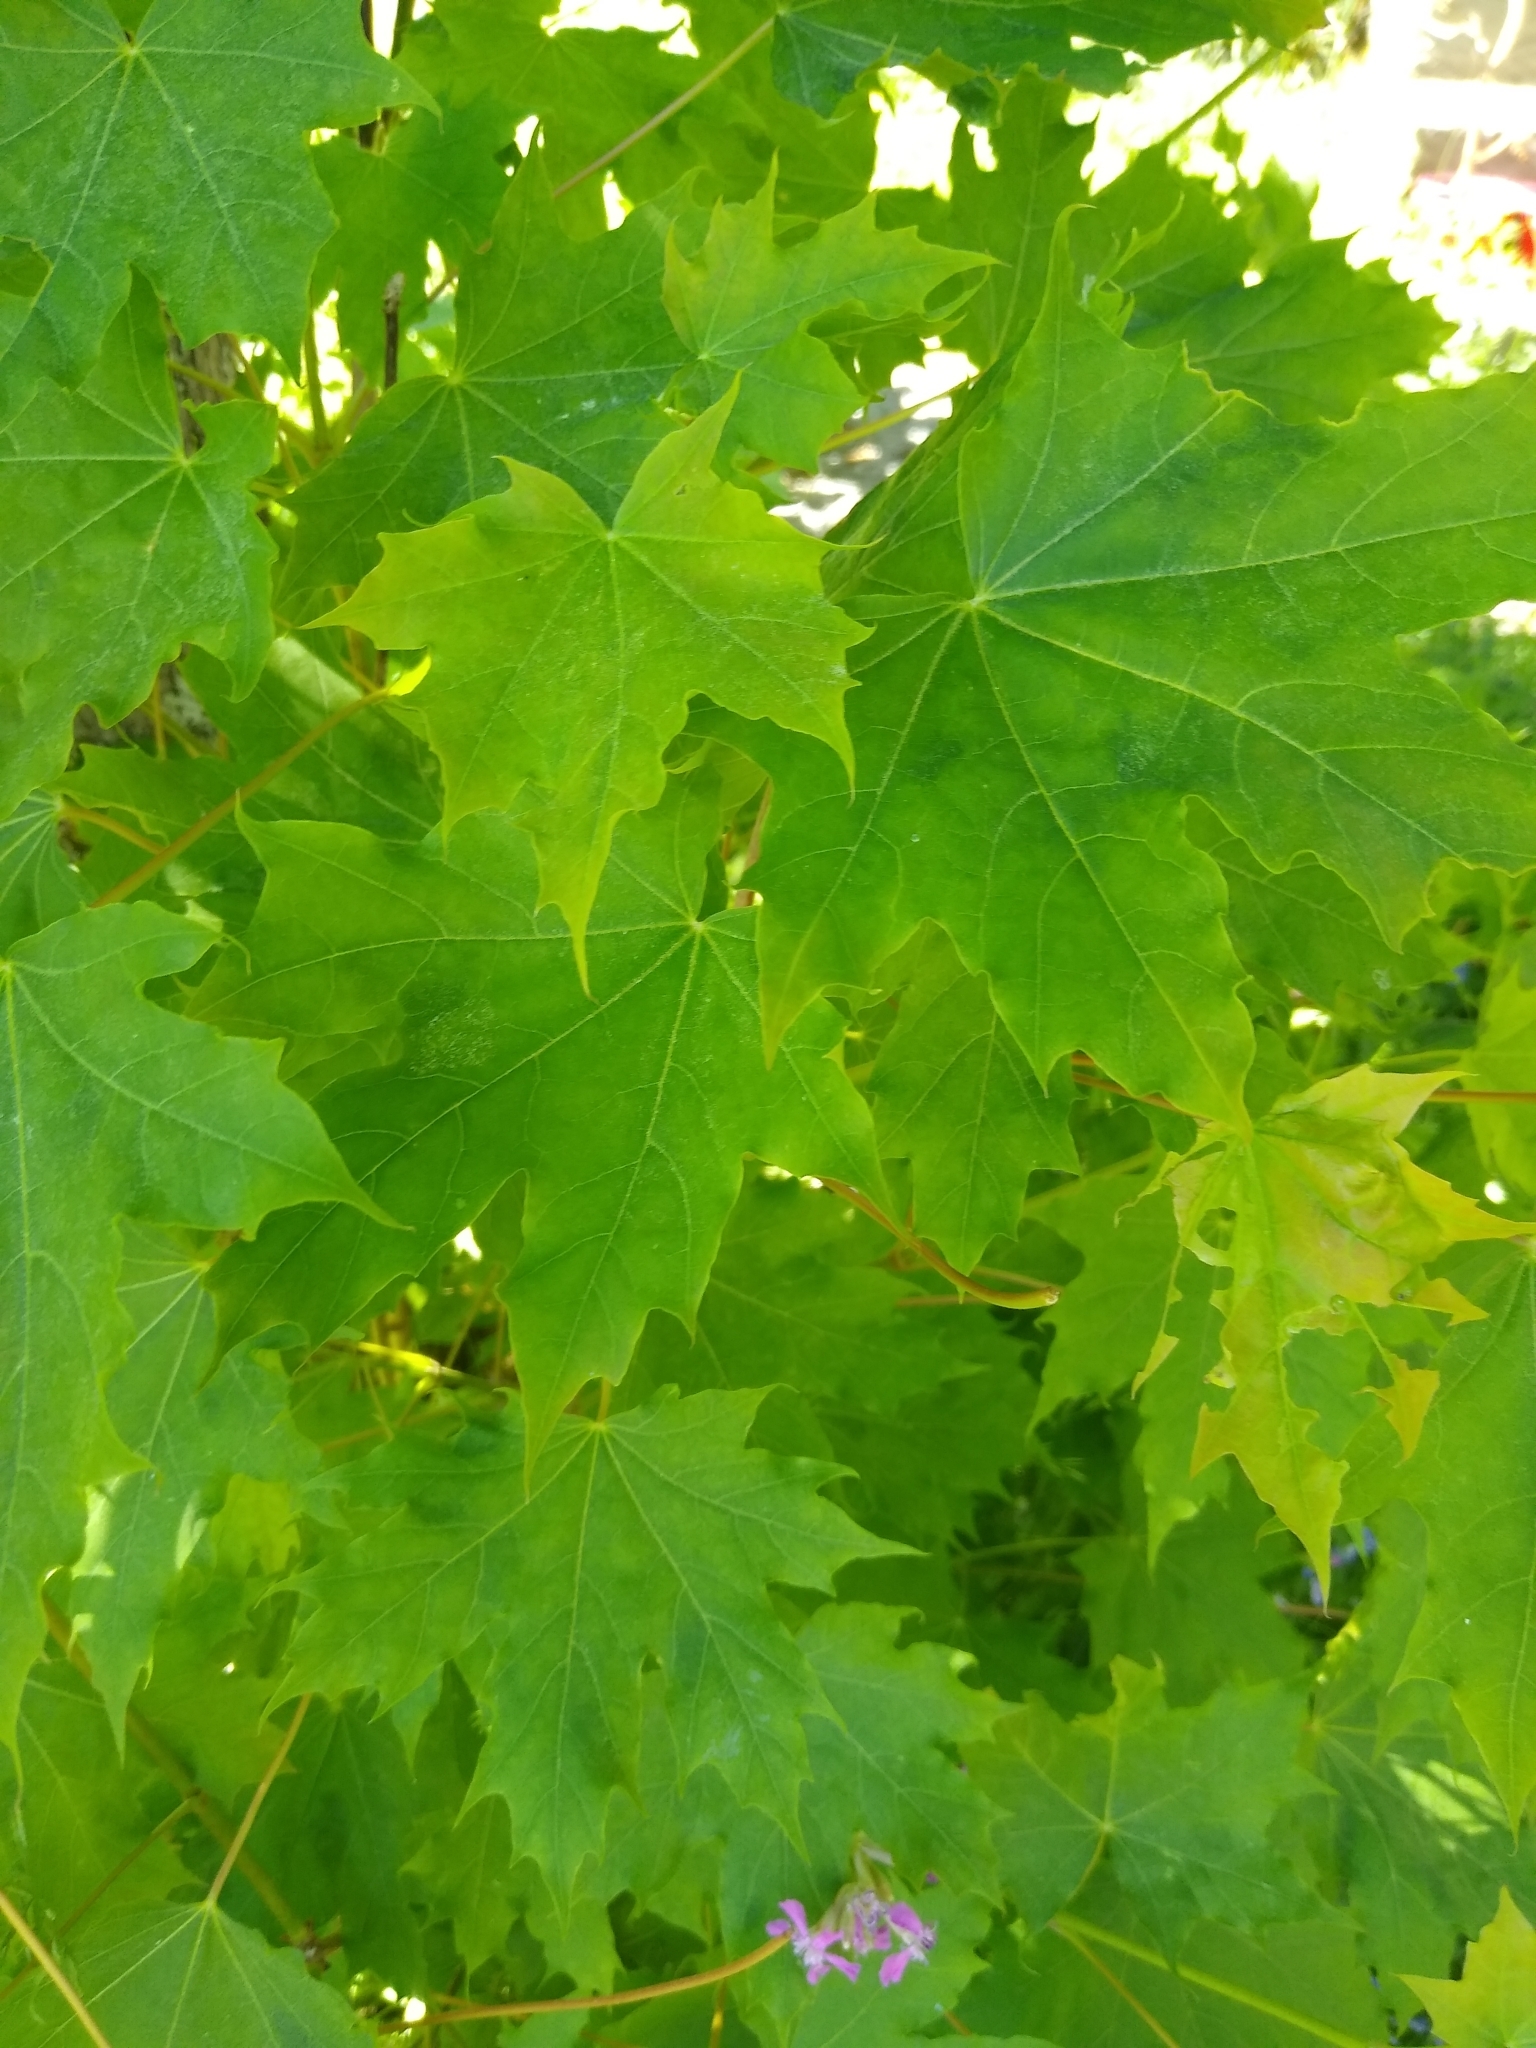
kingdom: Plantae
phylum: Tracheophyta
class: Magnoliopsida
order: Sapindales
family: Sapindaceae
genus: Acer
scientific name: Acer platanoides
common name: Norway maple
